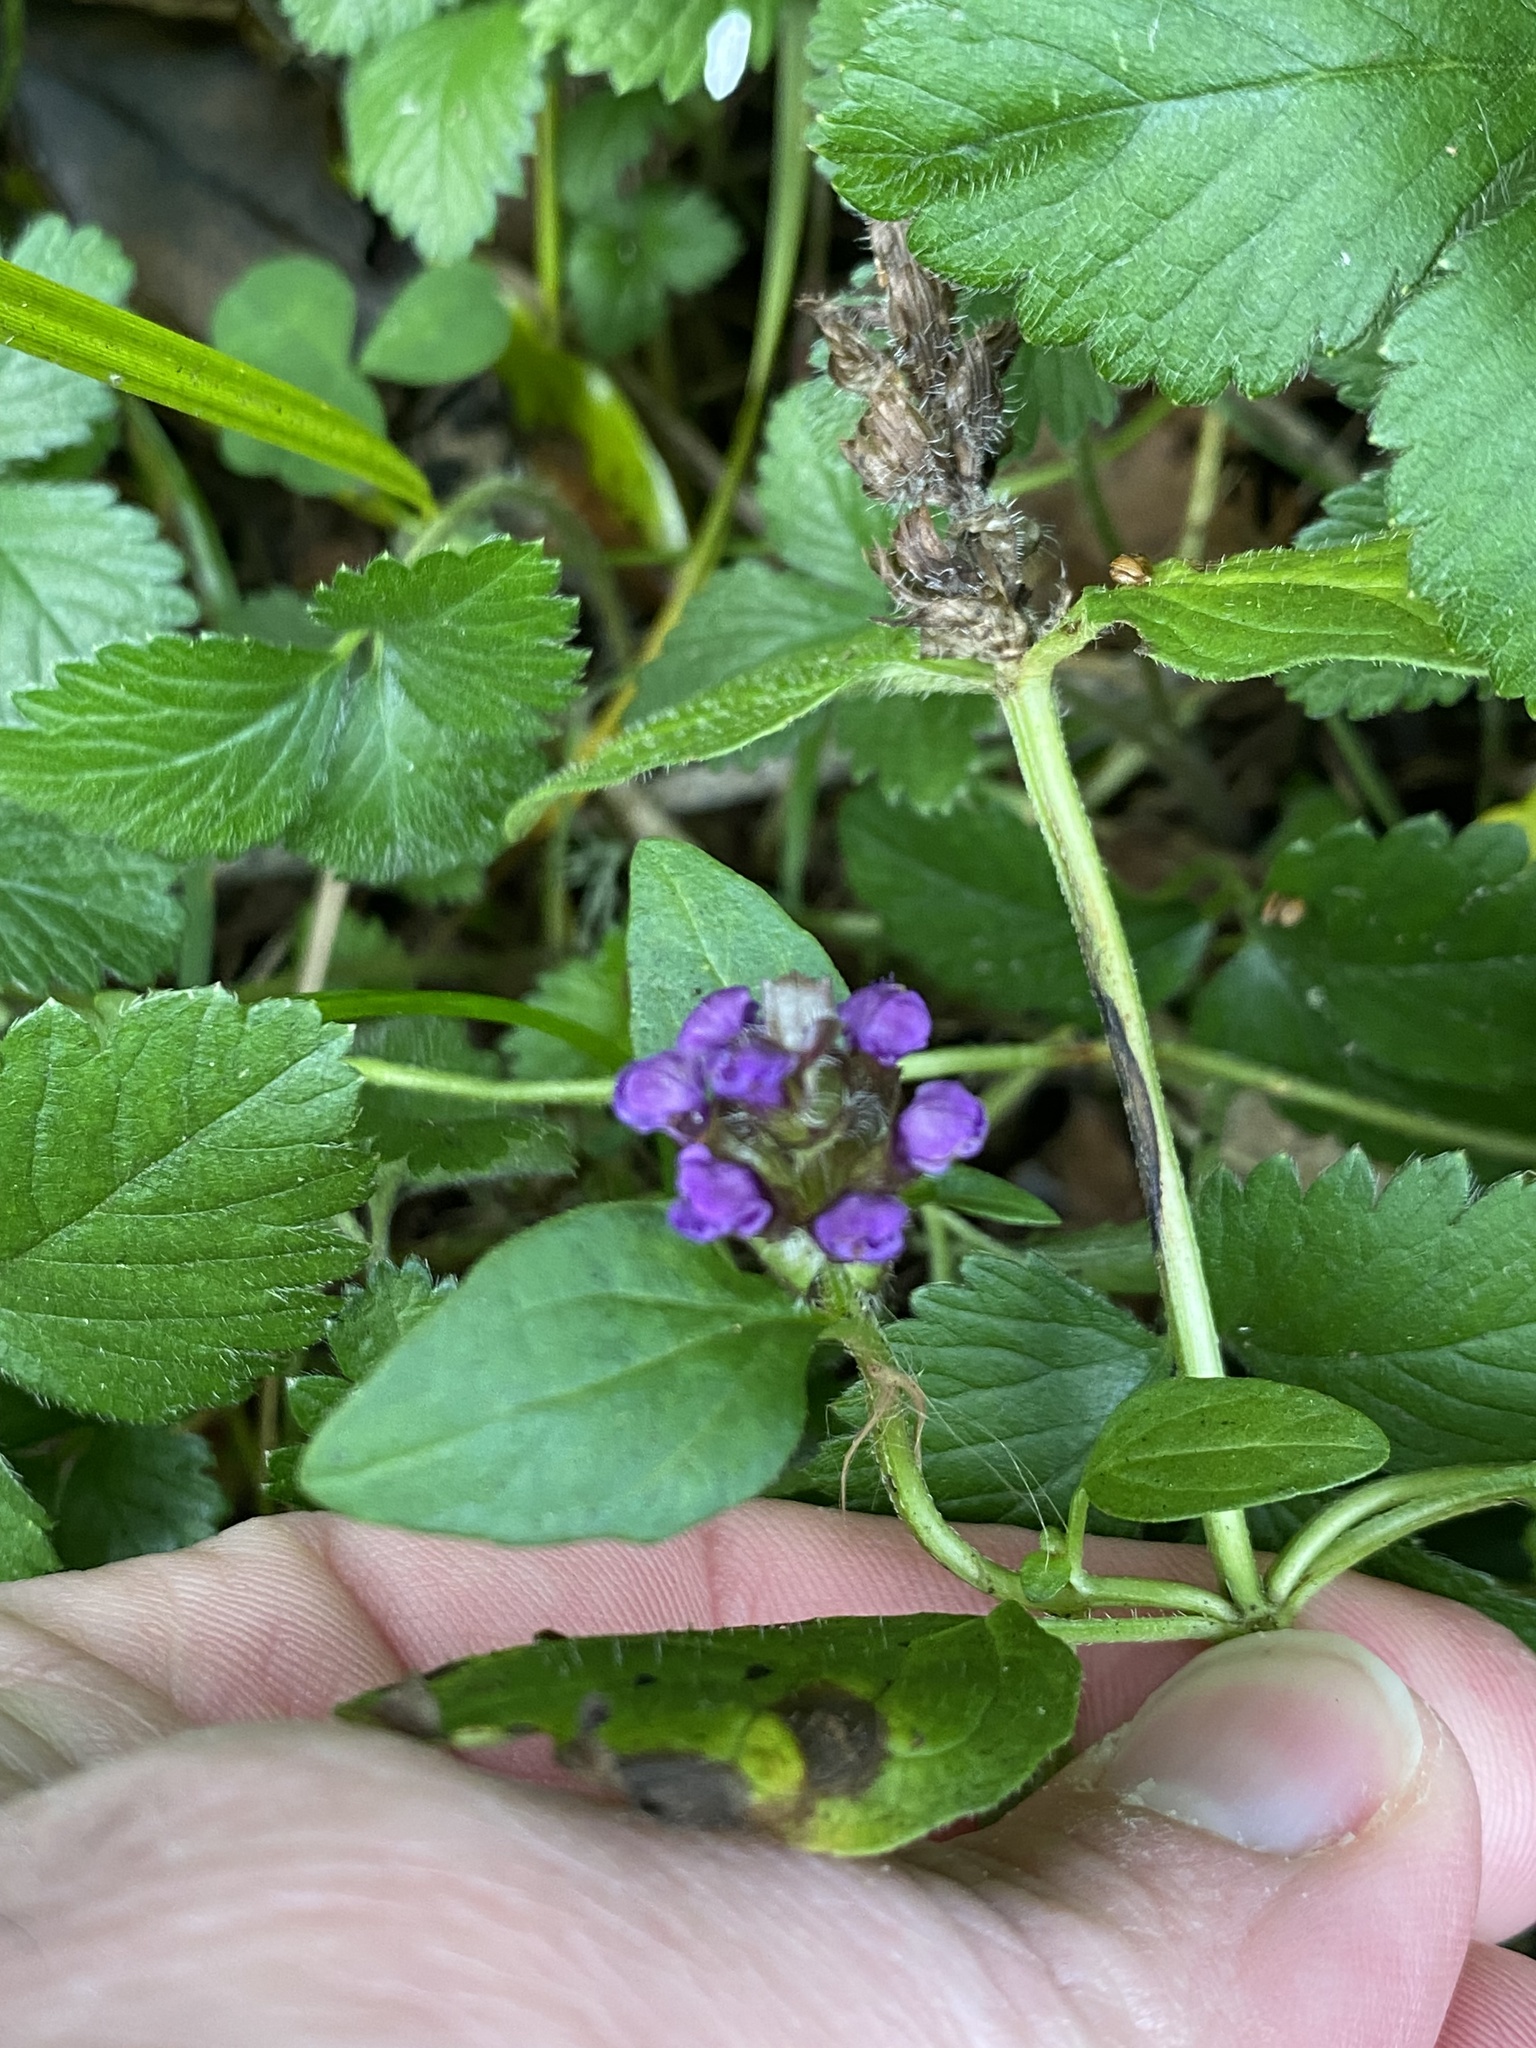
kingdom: Plantae
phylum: Tracheophyta
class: Magnoliopsida
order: Lamiales
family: Lamiaceae
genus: Prunella
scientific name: Prunella vulgaris
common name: Heal-all
